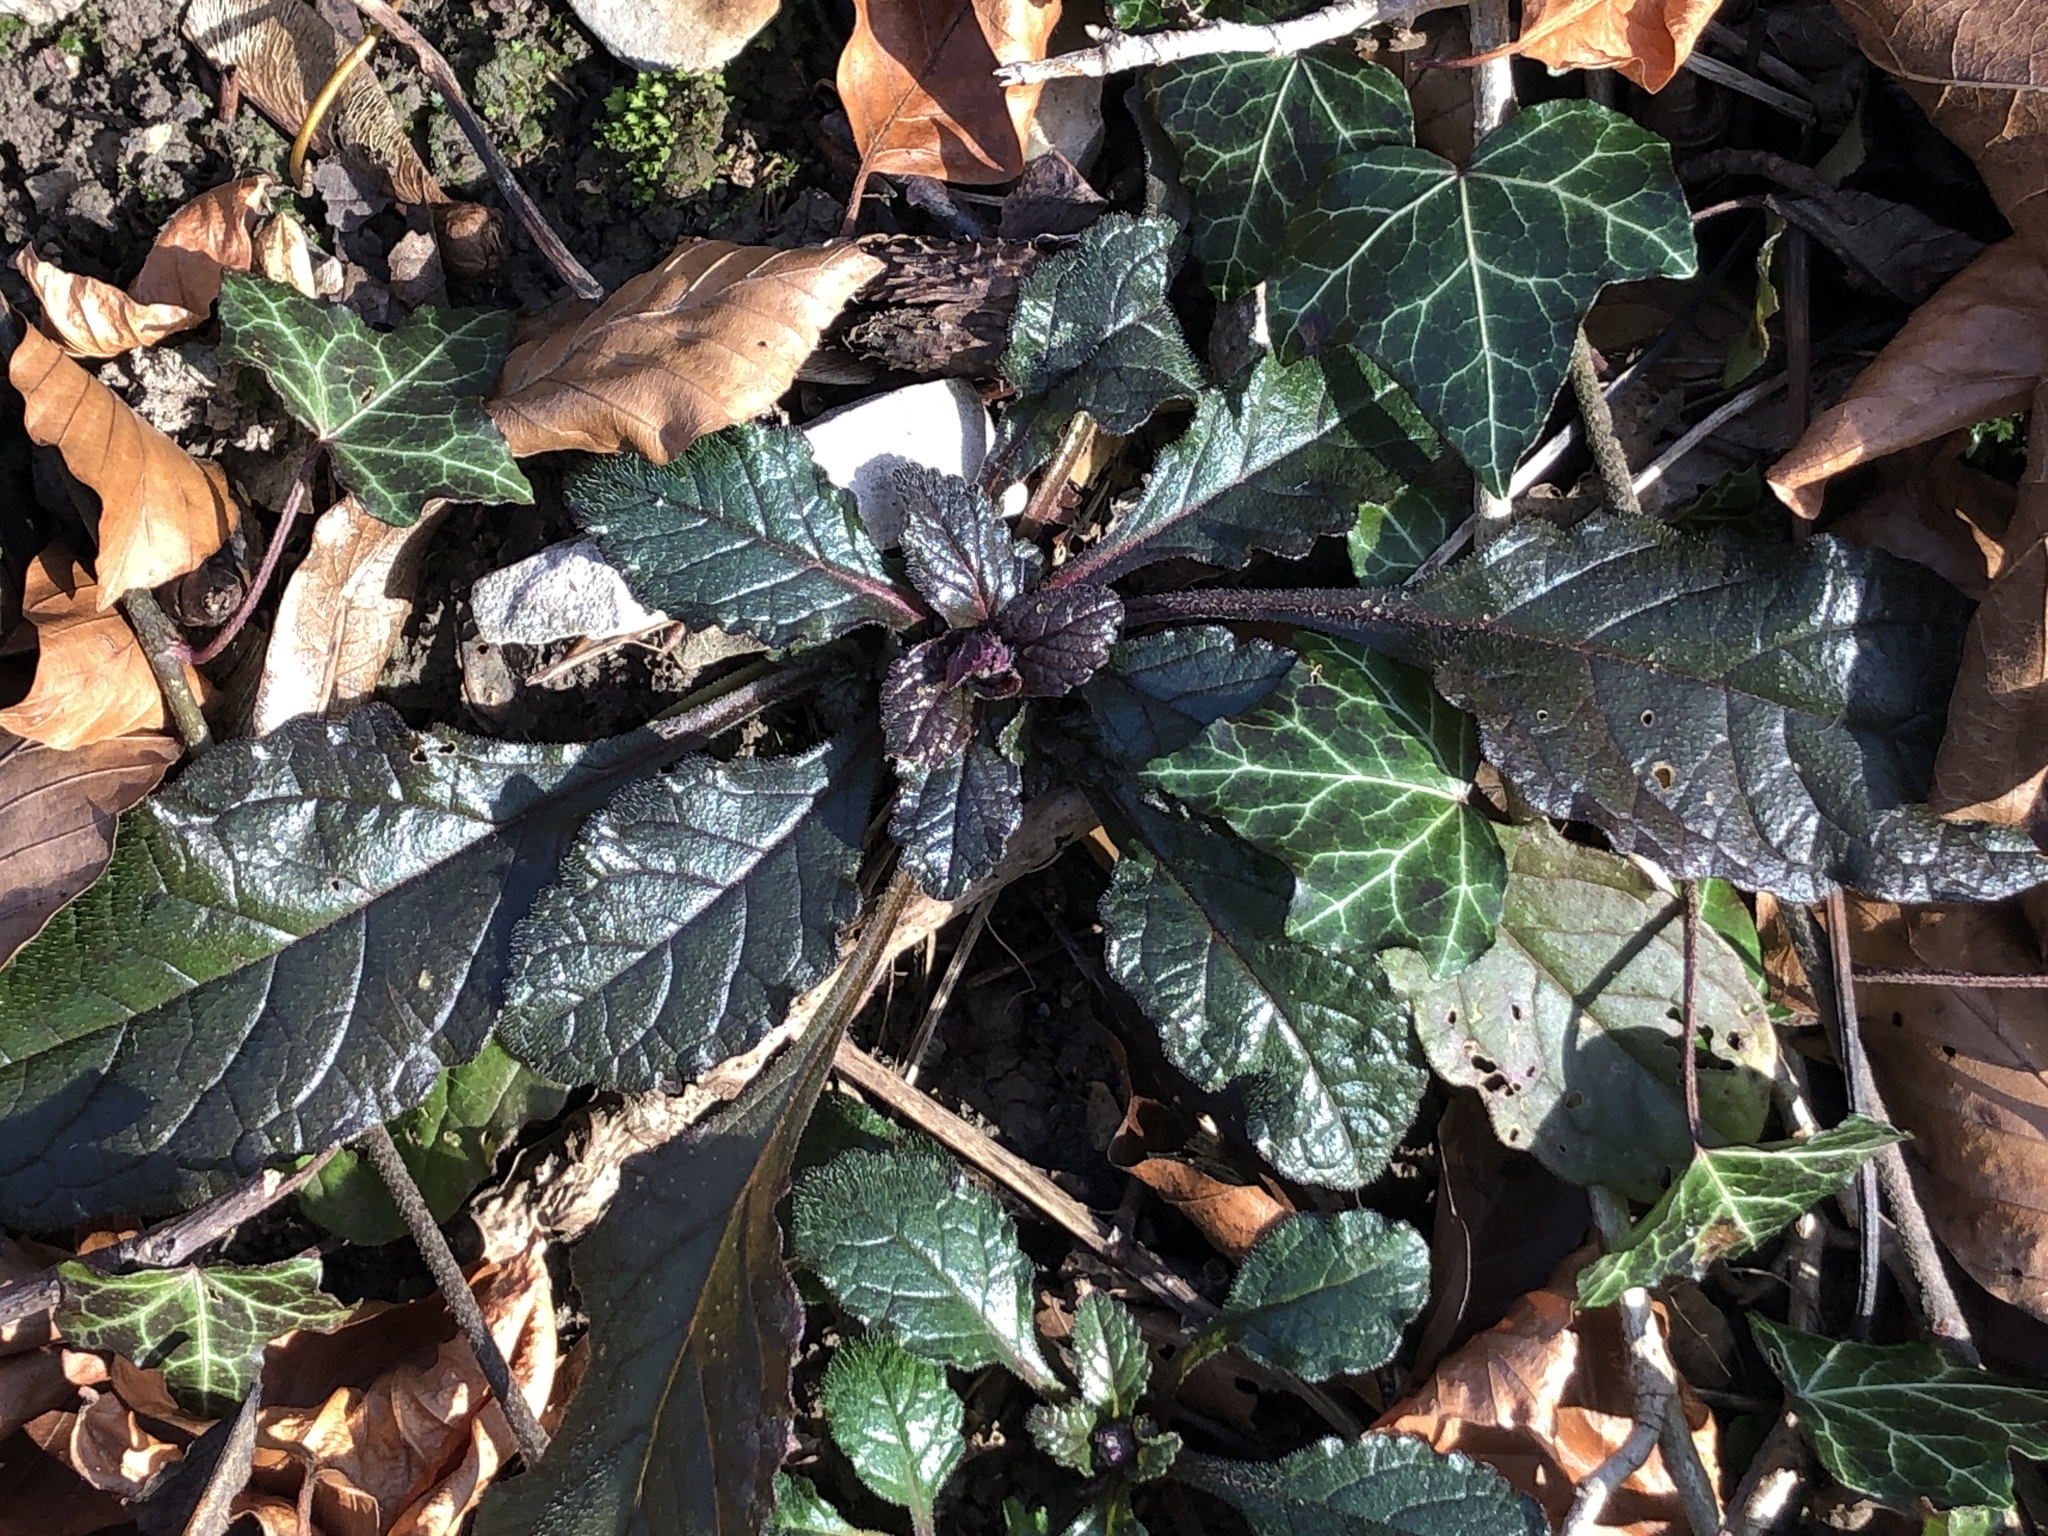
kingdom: Plantae
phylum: Tracheophyta
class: Magnoliopsida
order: Lamiales
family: Lamiaceae
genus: Ajuga
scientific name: Ajuga reptans
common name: Bugle
